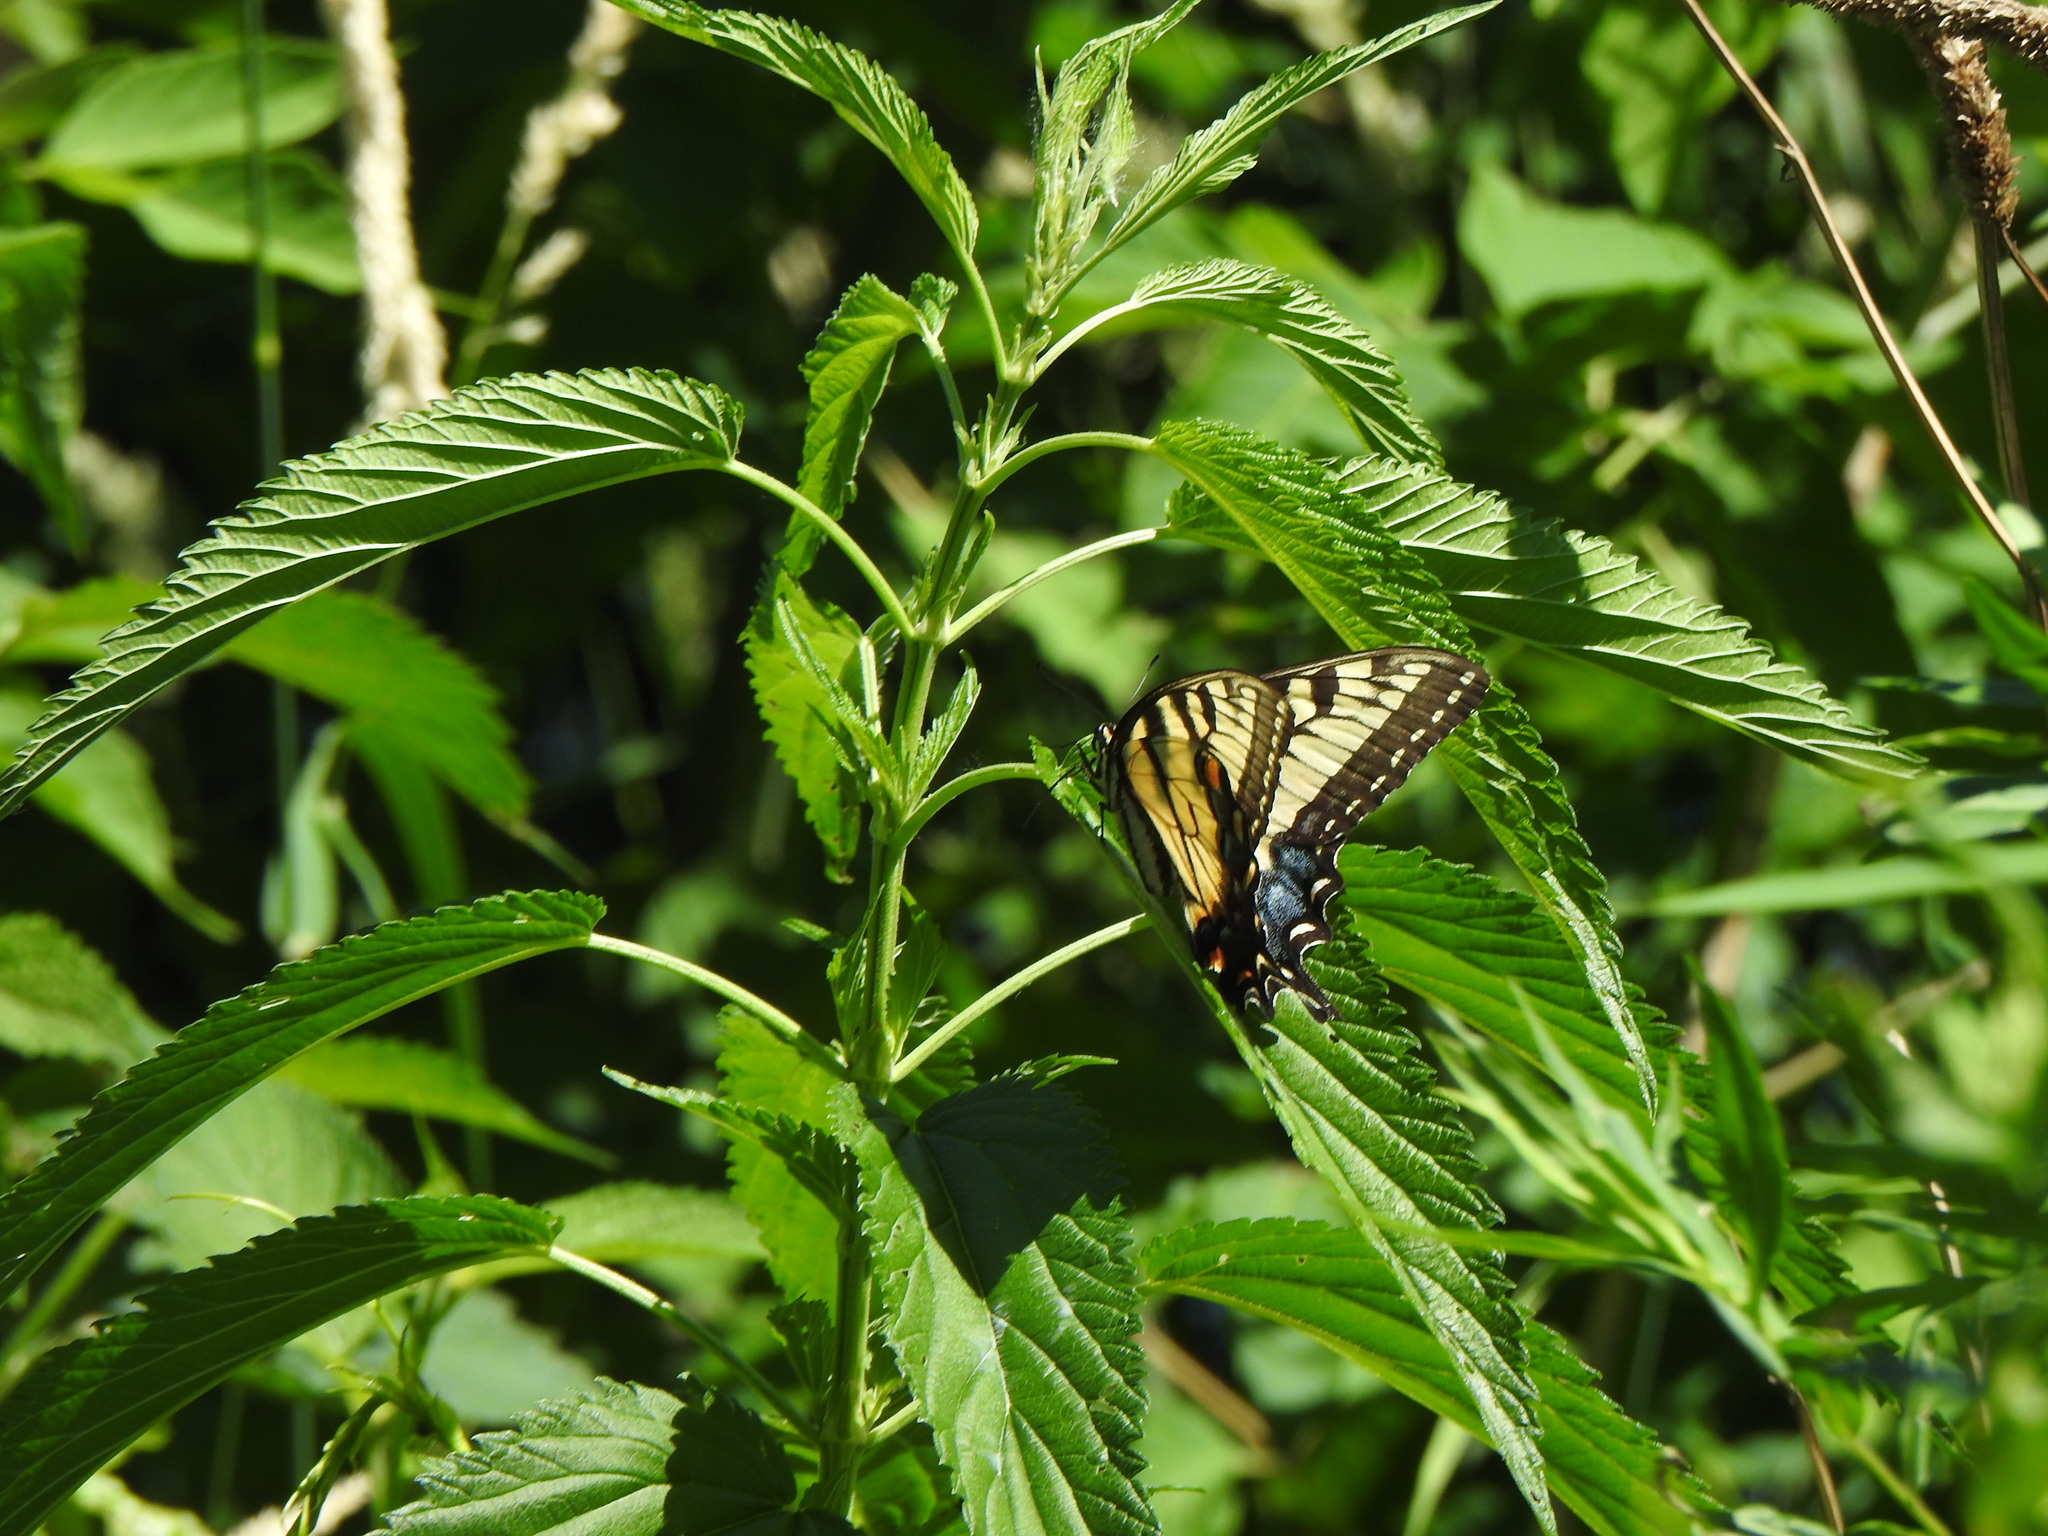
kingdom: Animalia
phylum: Arthropoda
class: Insecta
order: Lepidoptera
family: Papilionidae
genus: Papilio
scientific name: Papilio glaucus
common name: Tiger swallowtail
